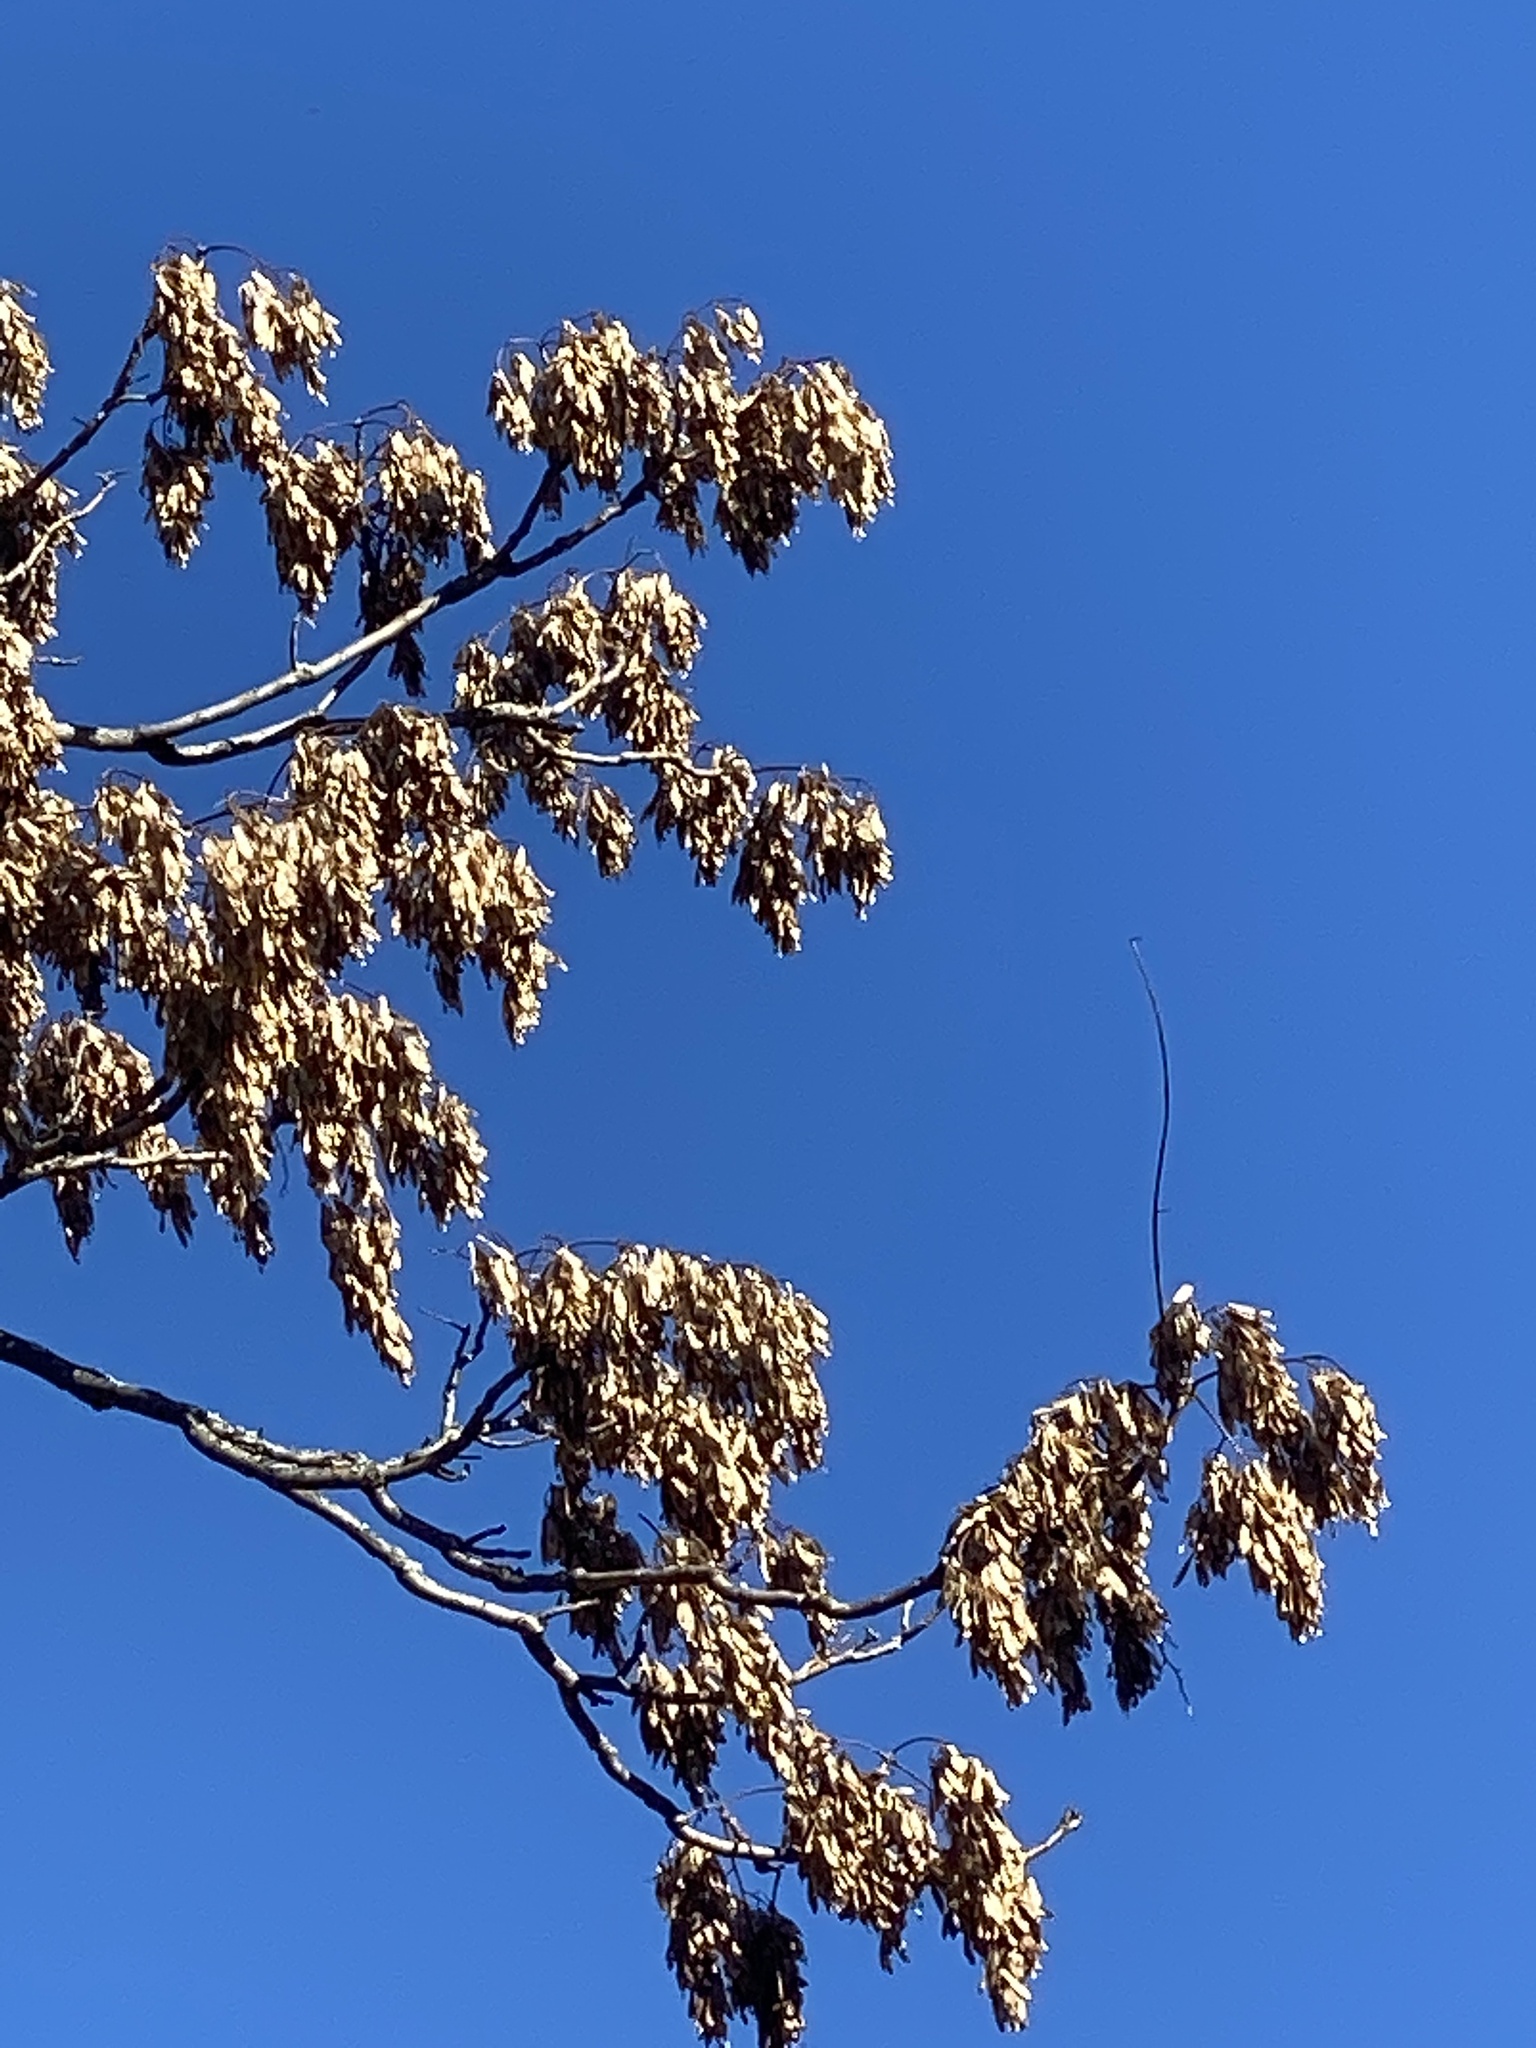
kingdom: Plantae
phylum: Tracheophyta
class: Magnoliopsida
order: Sapindales
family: Simaroubaceae
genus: Ailanthus
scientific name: Ailanthus altissima
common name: Tree-of-heaven
